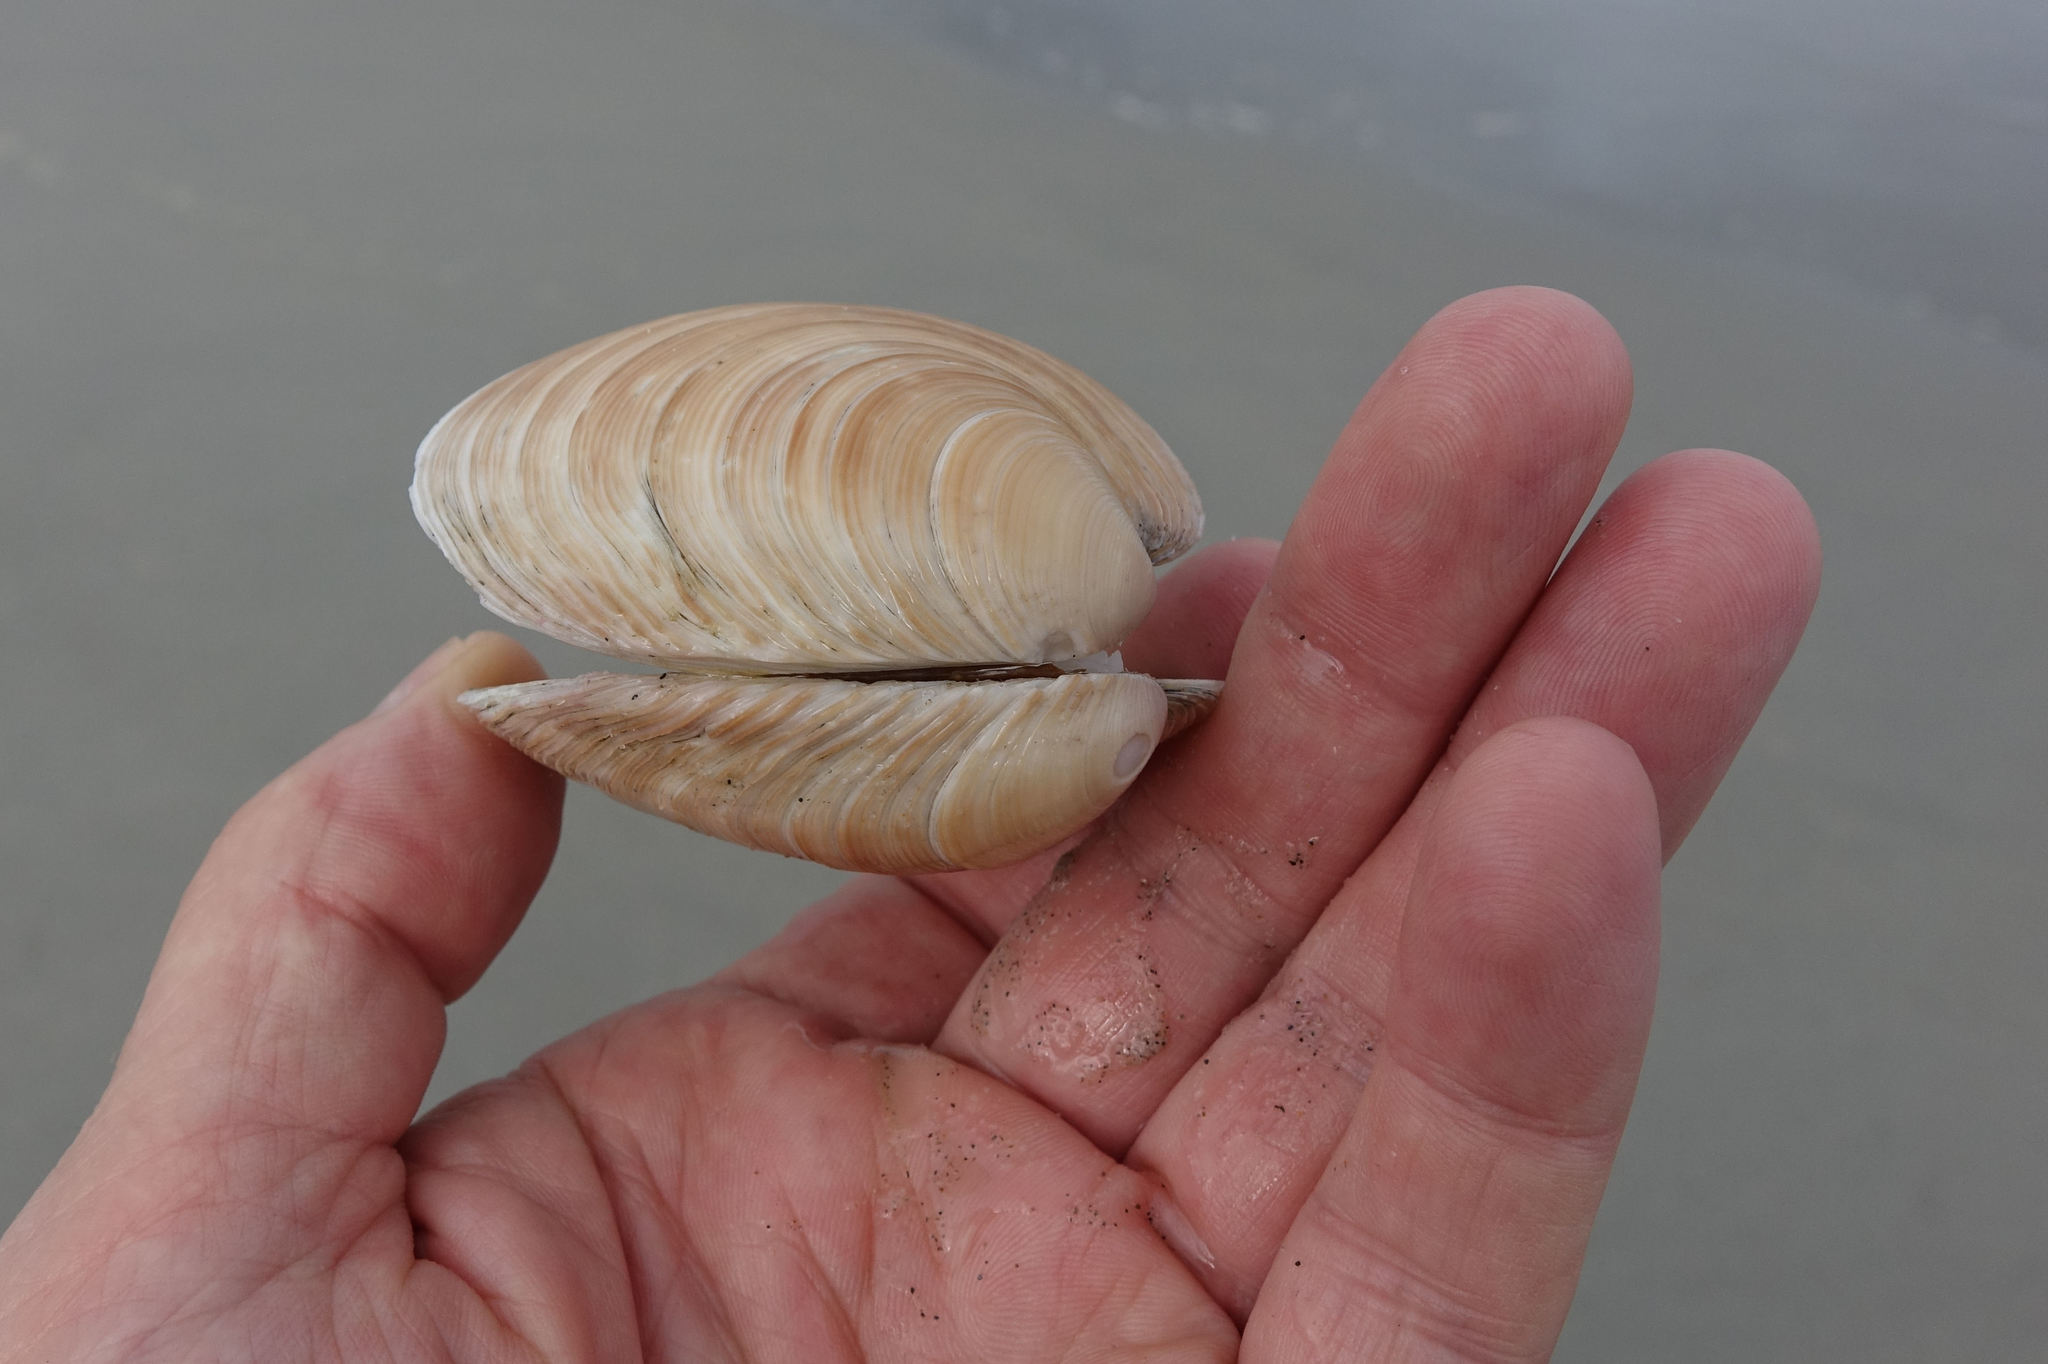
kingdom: Animalia
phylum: Mollusca
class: Bivalvia
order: Venerida
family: Veneridae
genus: Dosinia
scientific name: Dosinia anus
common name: Old-woman dosinia
